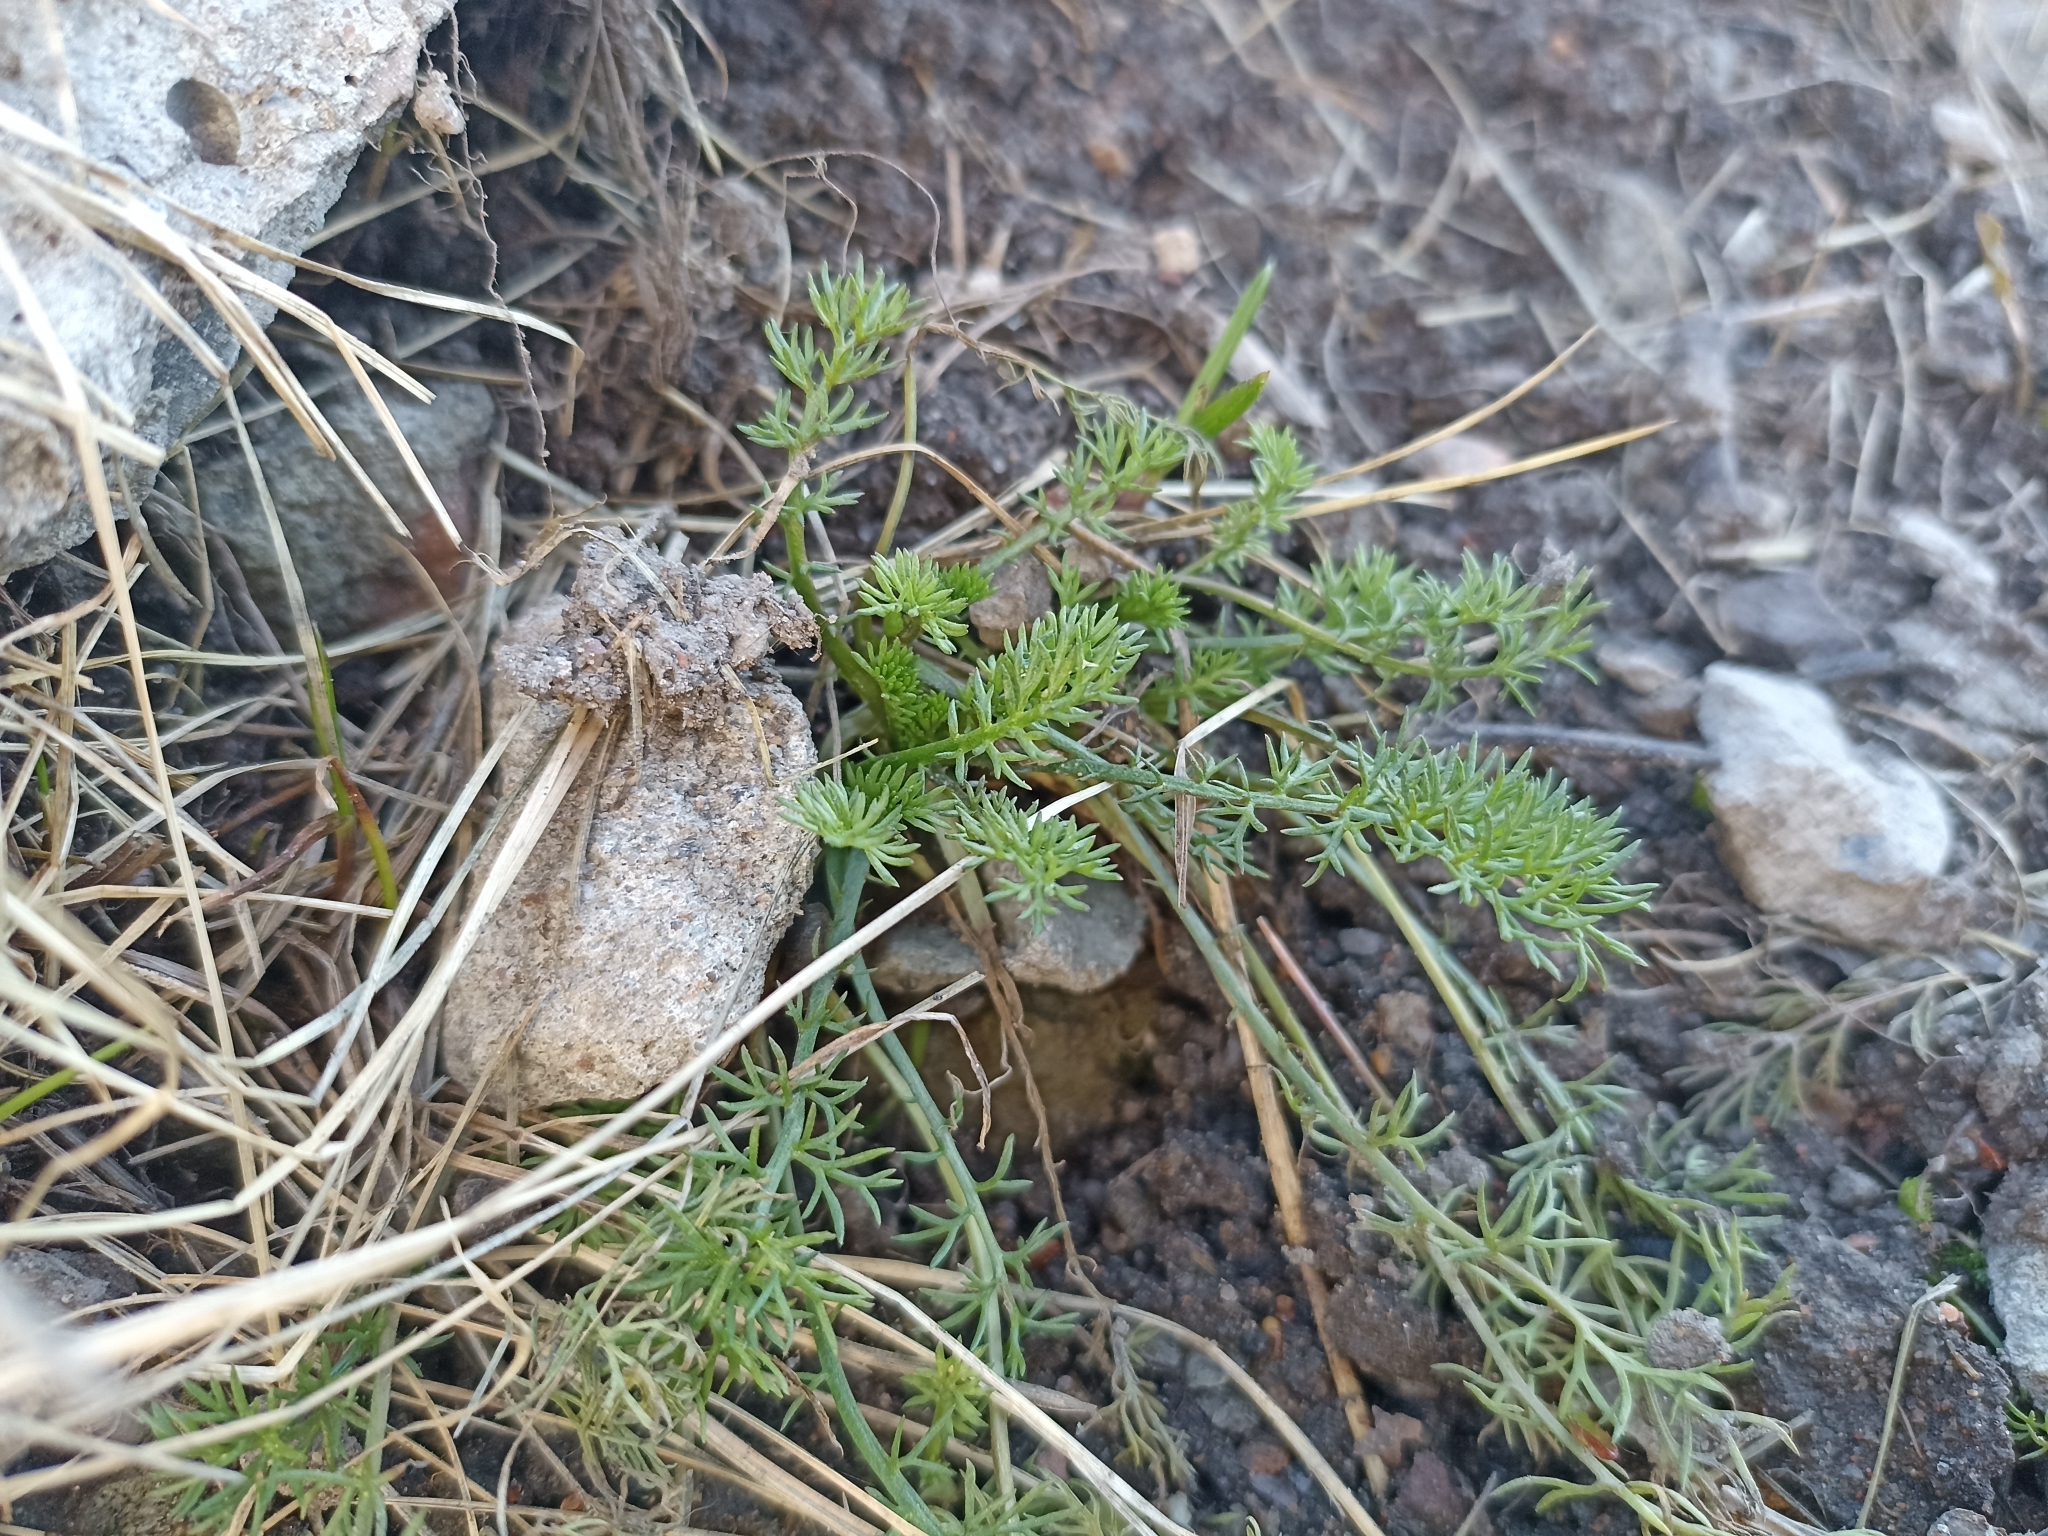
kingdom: Plantae
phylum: Tracheophyta
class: Magnoliopsida
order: Asterales
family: Asteraceae
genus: Tripleurospermum
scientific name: Tripleurospermum inodorum
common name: Scentless mayweed
